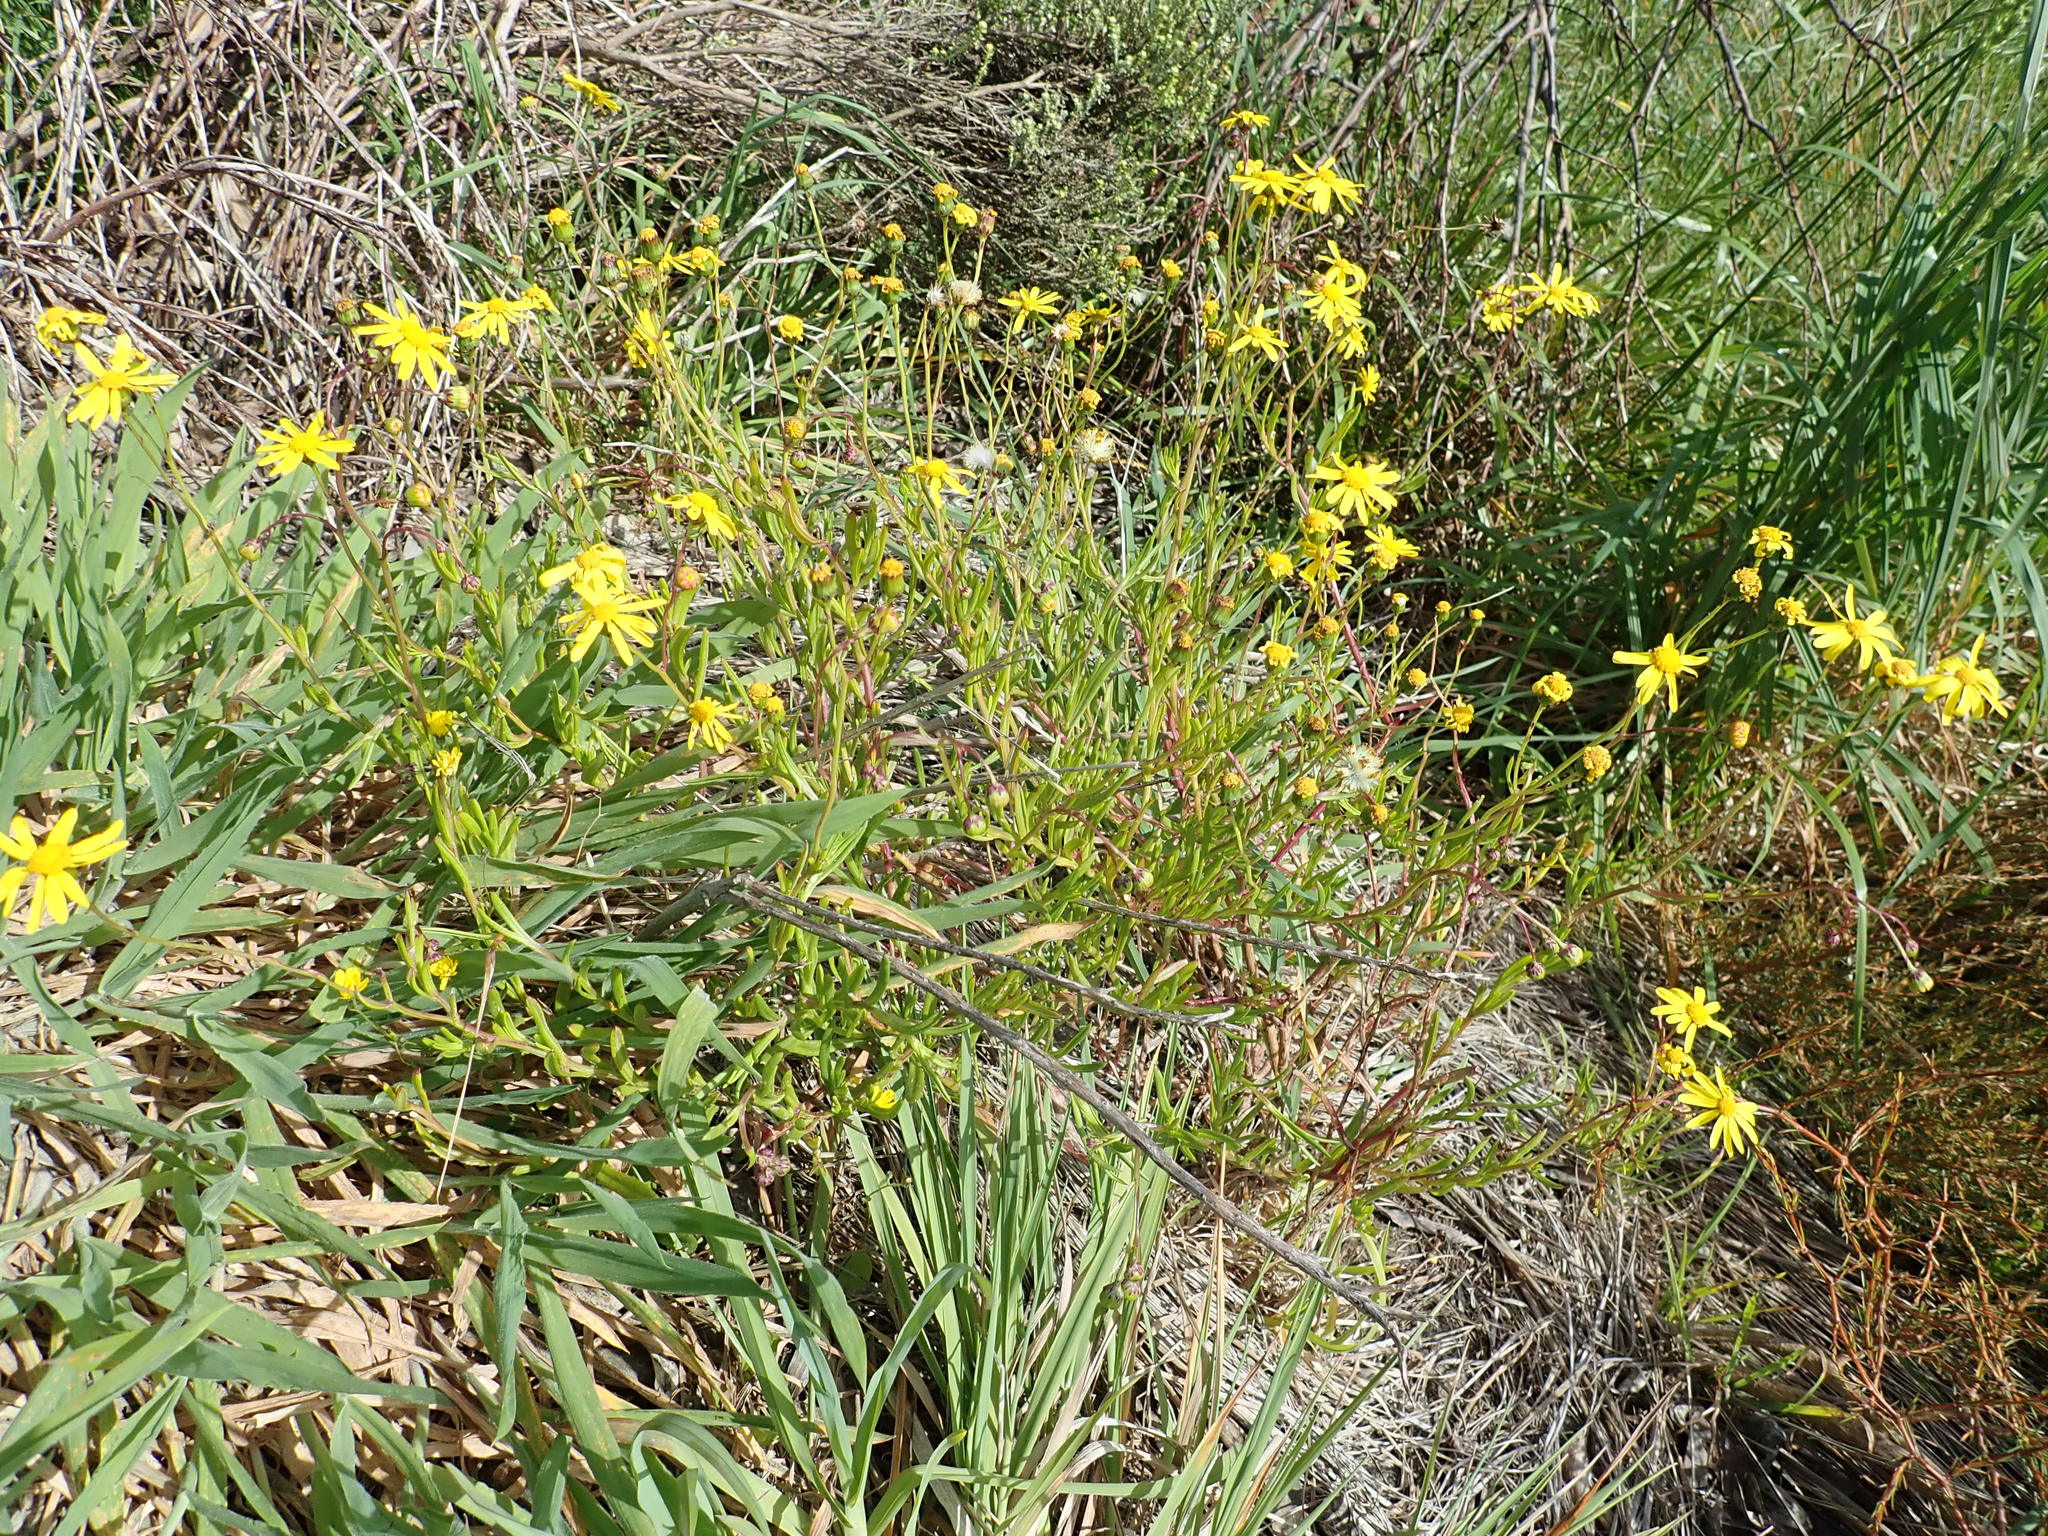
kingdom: Plantae
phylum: Tracheophyta
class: Magnoliopsida
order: Asterales
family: Asteraceae
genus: Senecio
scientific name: Senecio skirrhodon
